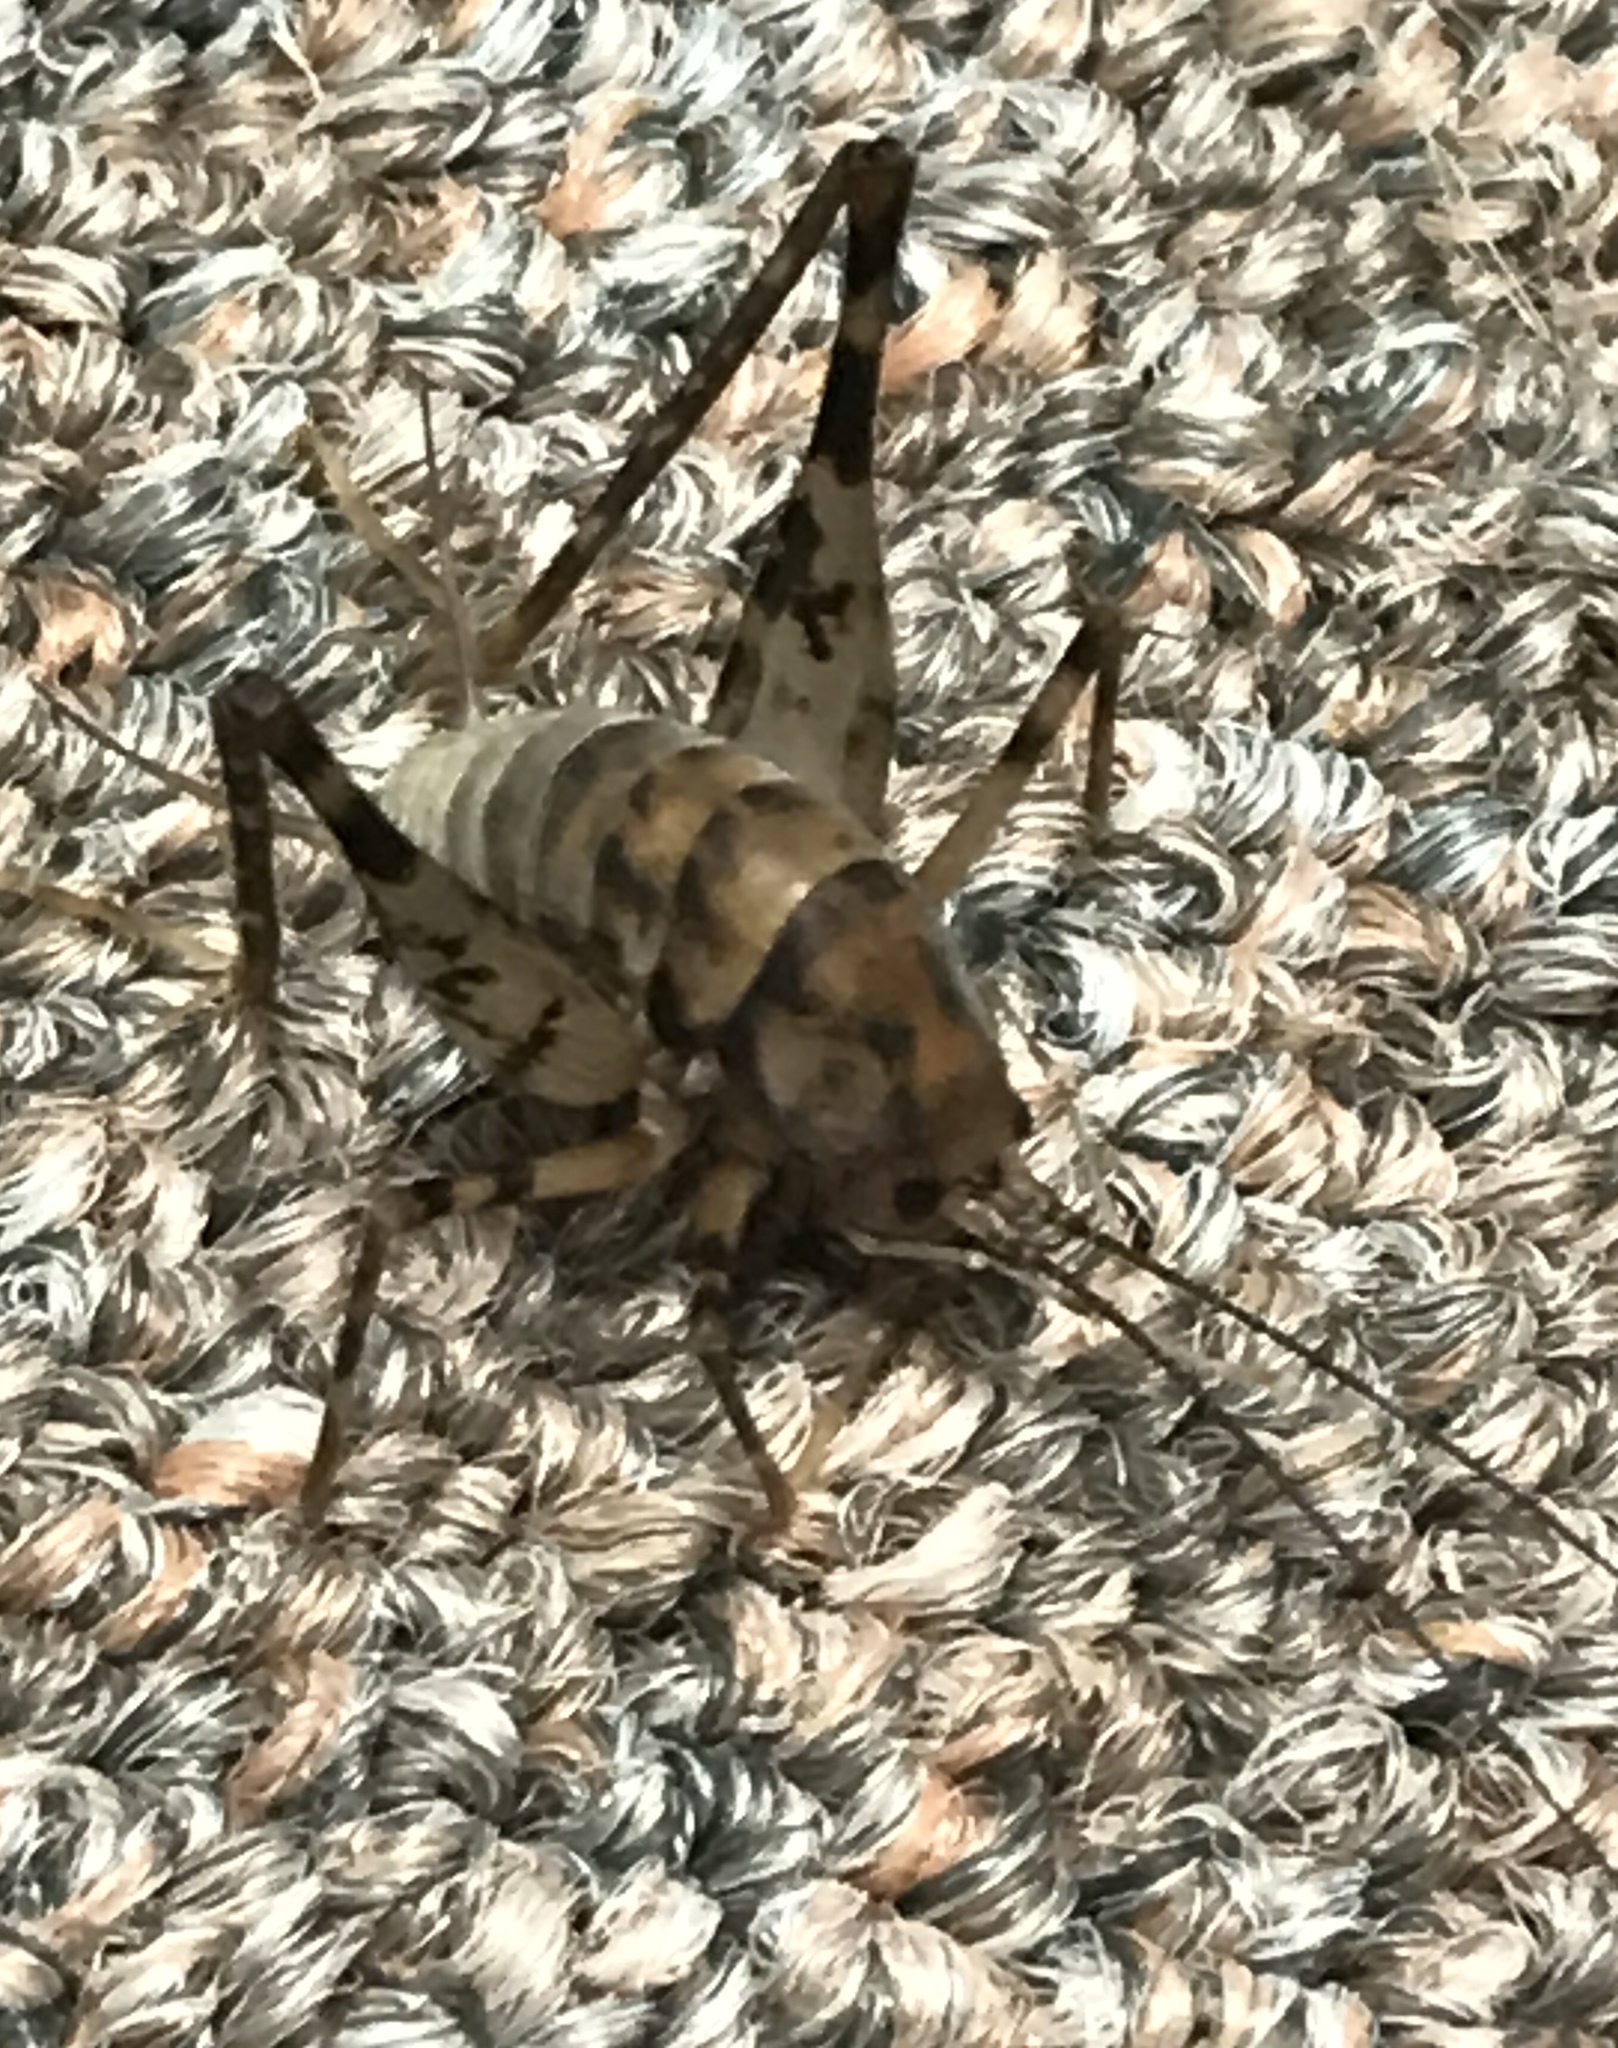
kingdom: Animalia
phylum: Arthropoda
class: Insecta
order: Orthoptera
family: Rhaphidophoridae
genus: Tachycines
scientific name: Tachycines asynamorus
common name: Greenhouse camel cricket
